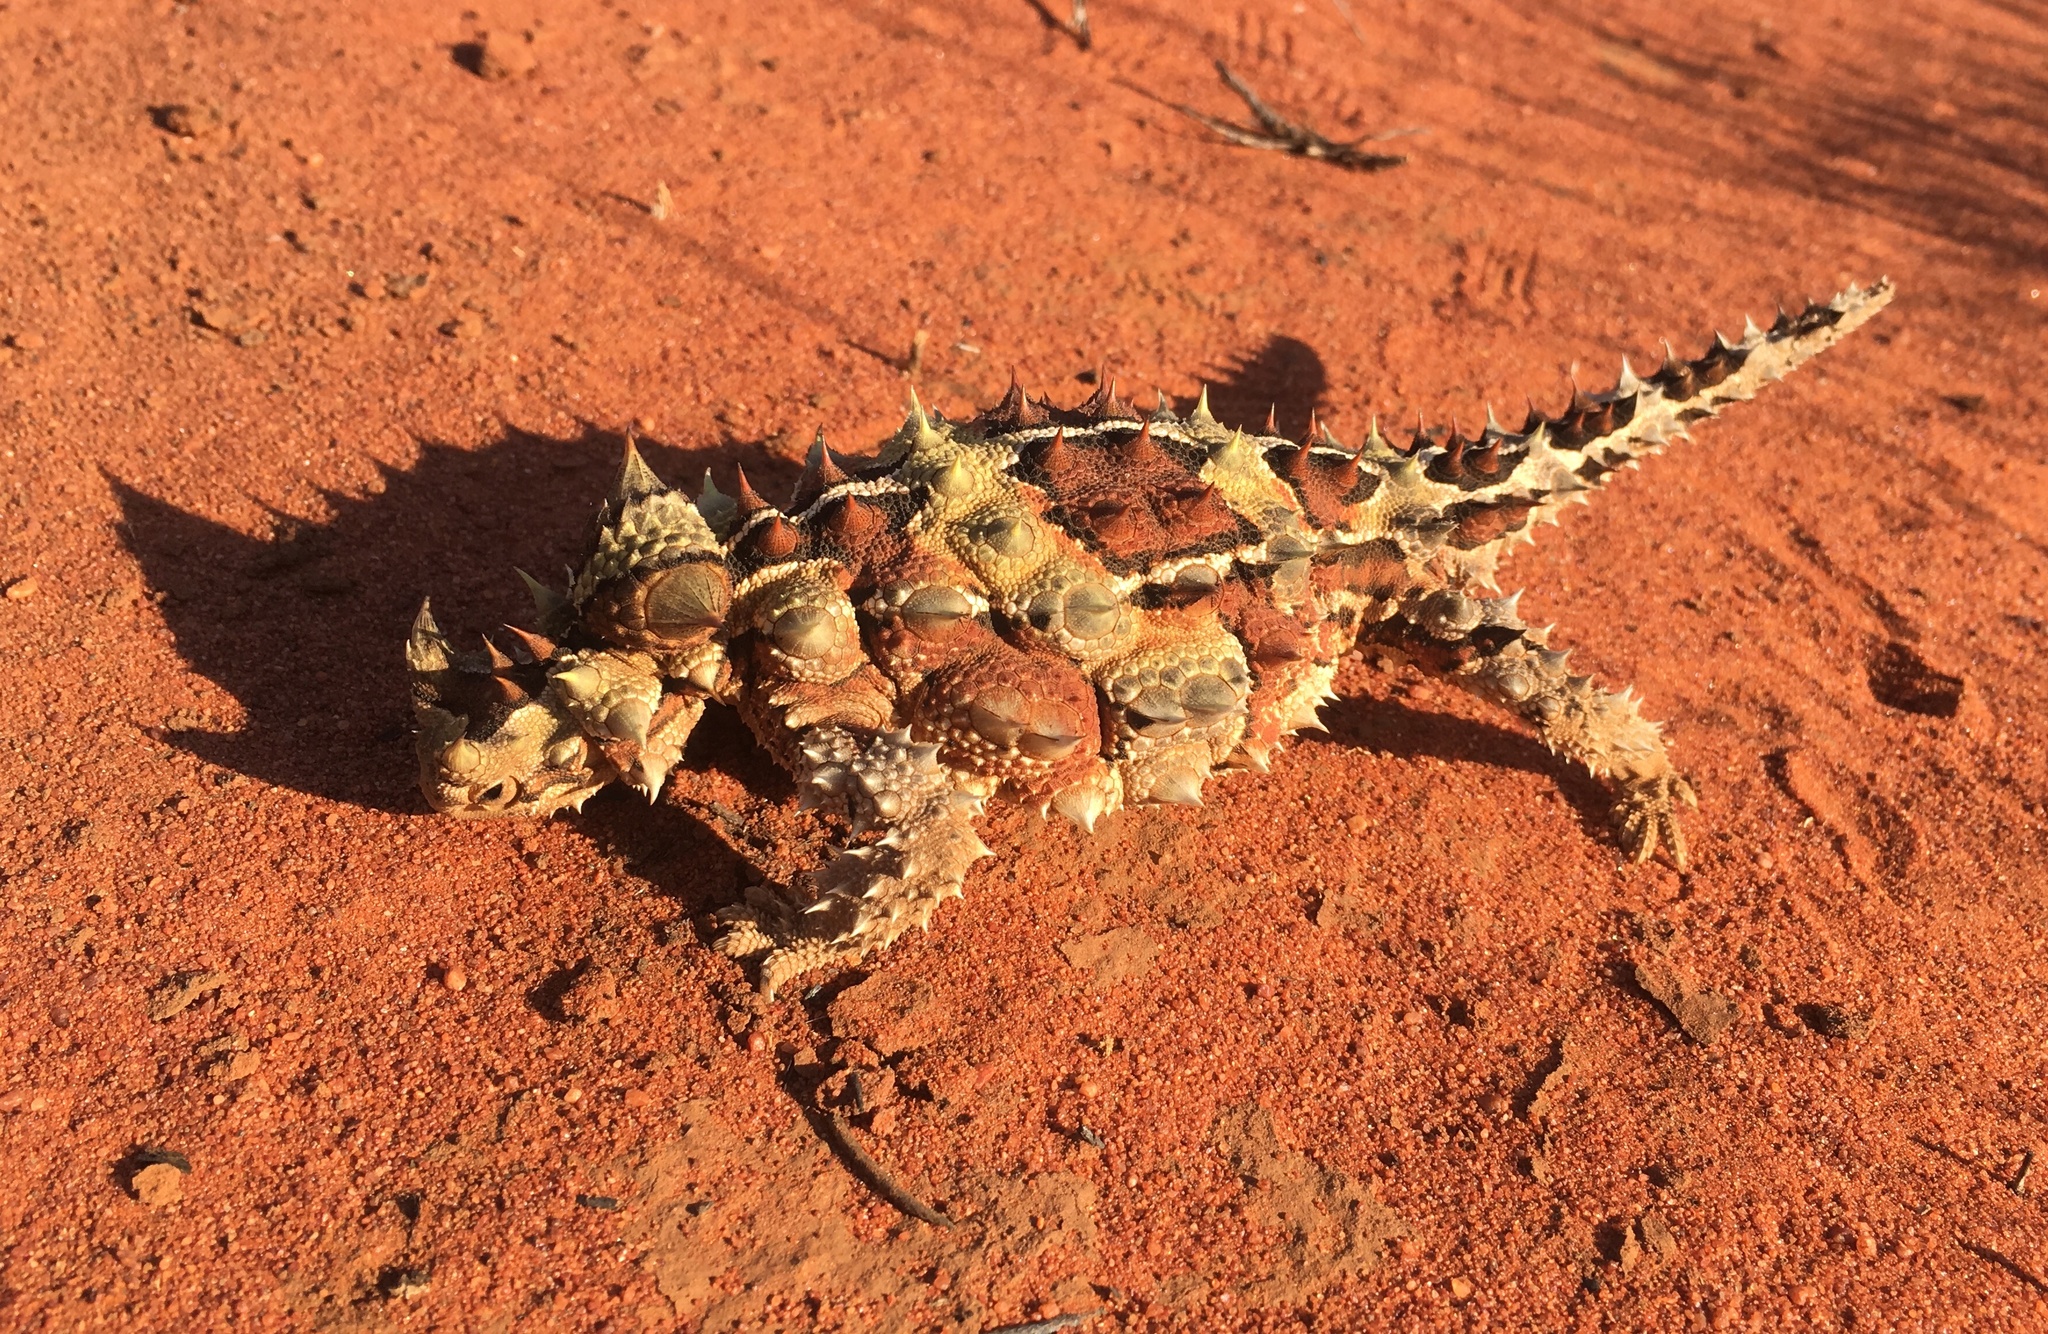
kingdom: Animalia
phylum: Chordata
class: Squamata
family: Agamidae
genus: Moloch
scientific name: Moloch horridus
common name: Mountain devil
